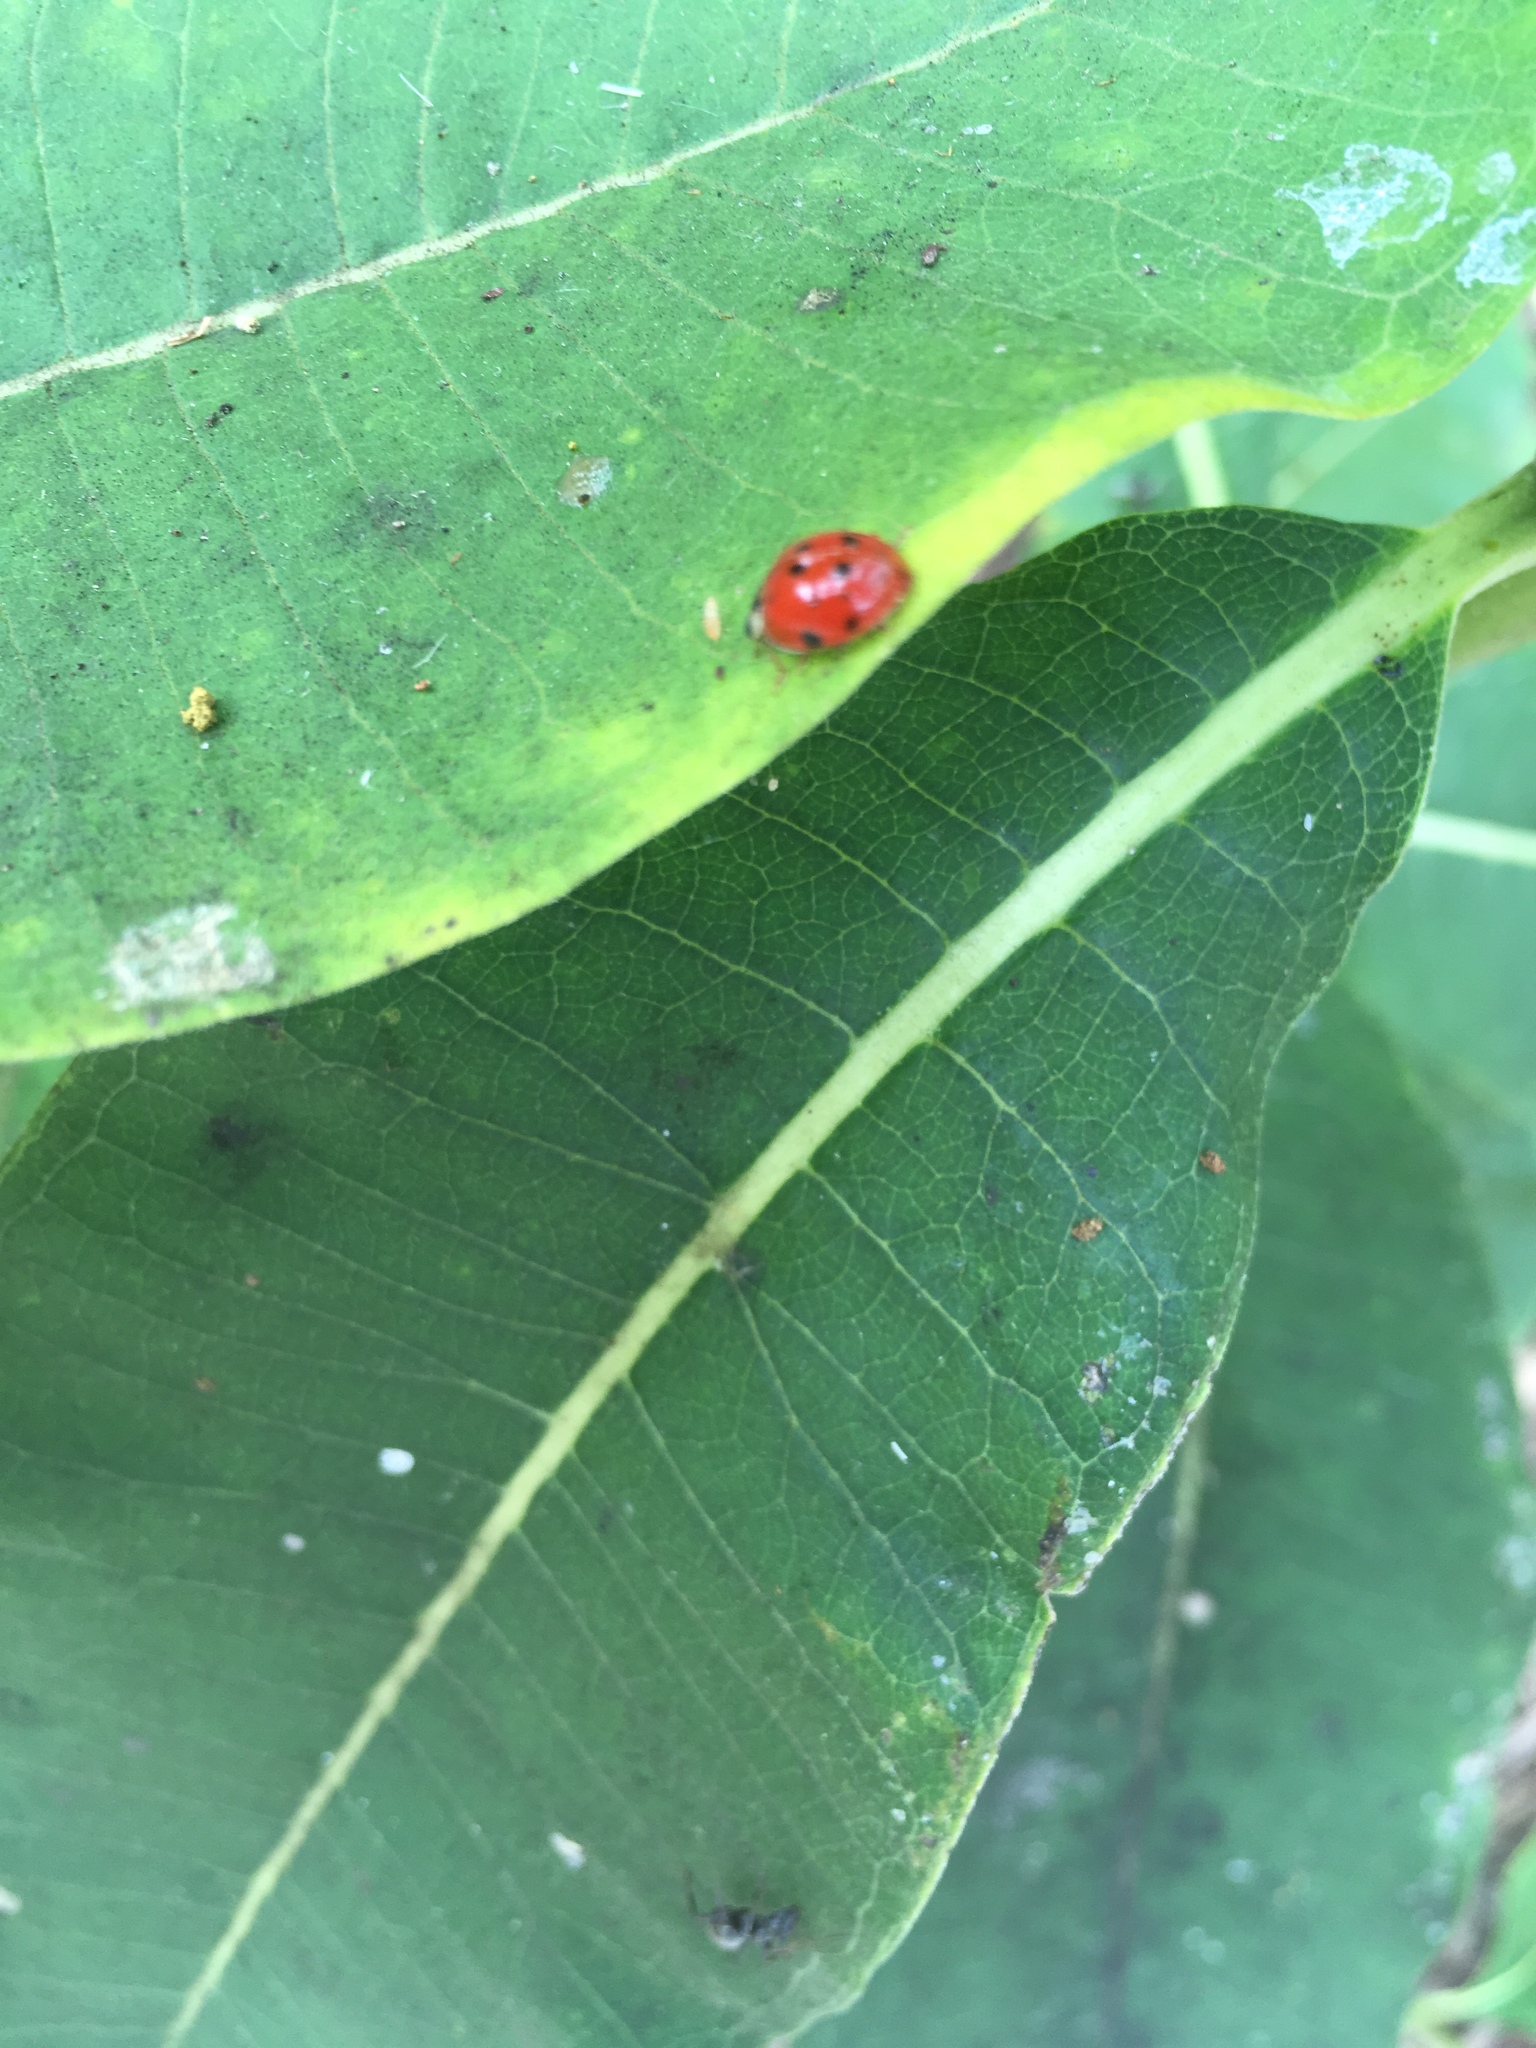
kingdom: Animalia
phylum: Arthropoda
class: Insecta
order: Coleoptera
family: Coccinellidae
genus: Harmonia
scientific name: Harmonia axyridis
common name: Harlequin ladybird
